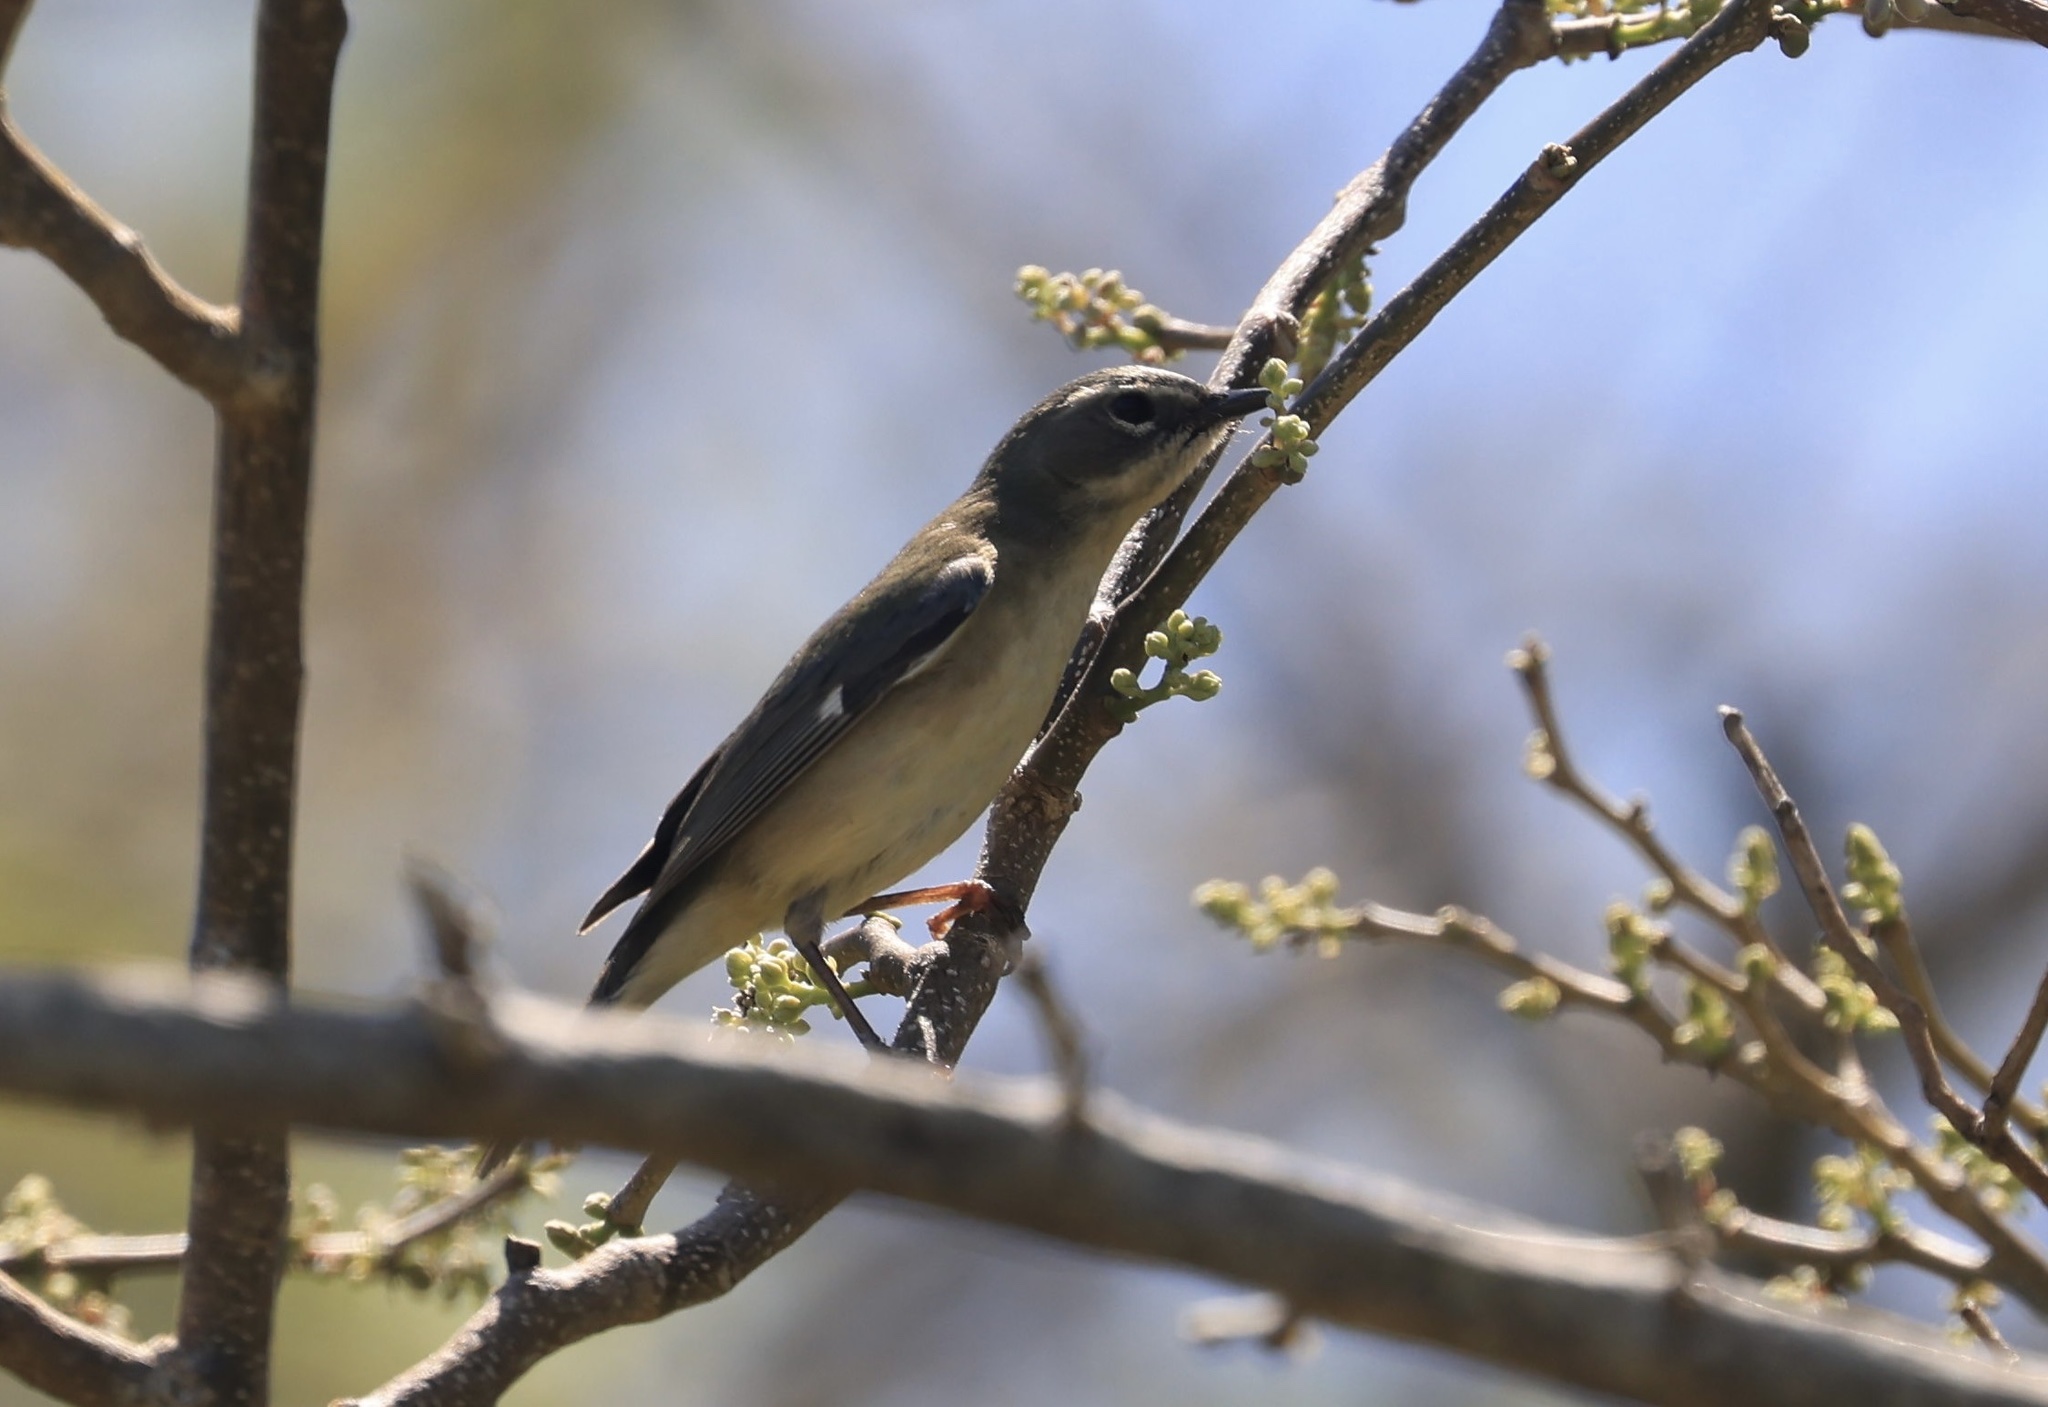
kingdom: Animalia
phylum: Chordata
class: Aves
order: Passeriformes
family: Parulidae
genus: Setophaga
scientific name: Setophaga caerulescens
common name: Black-throated blue warbler
